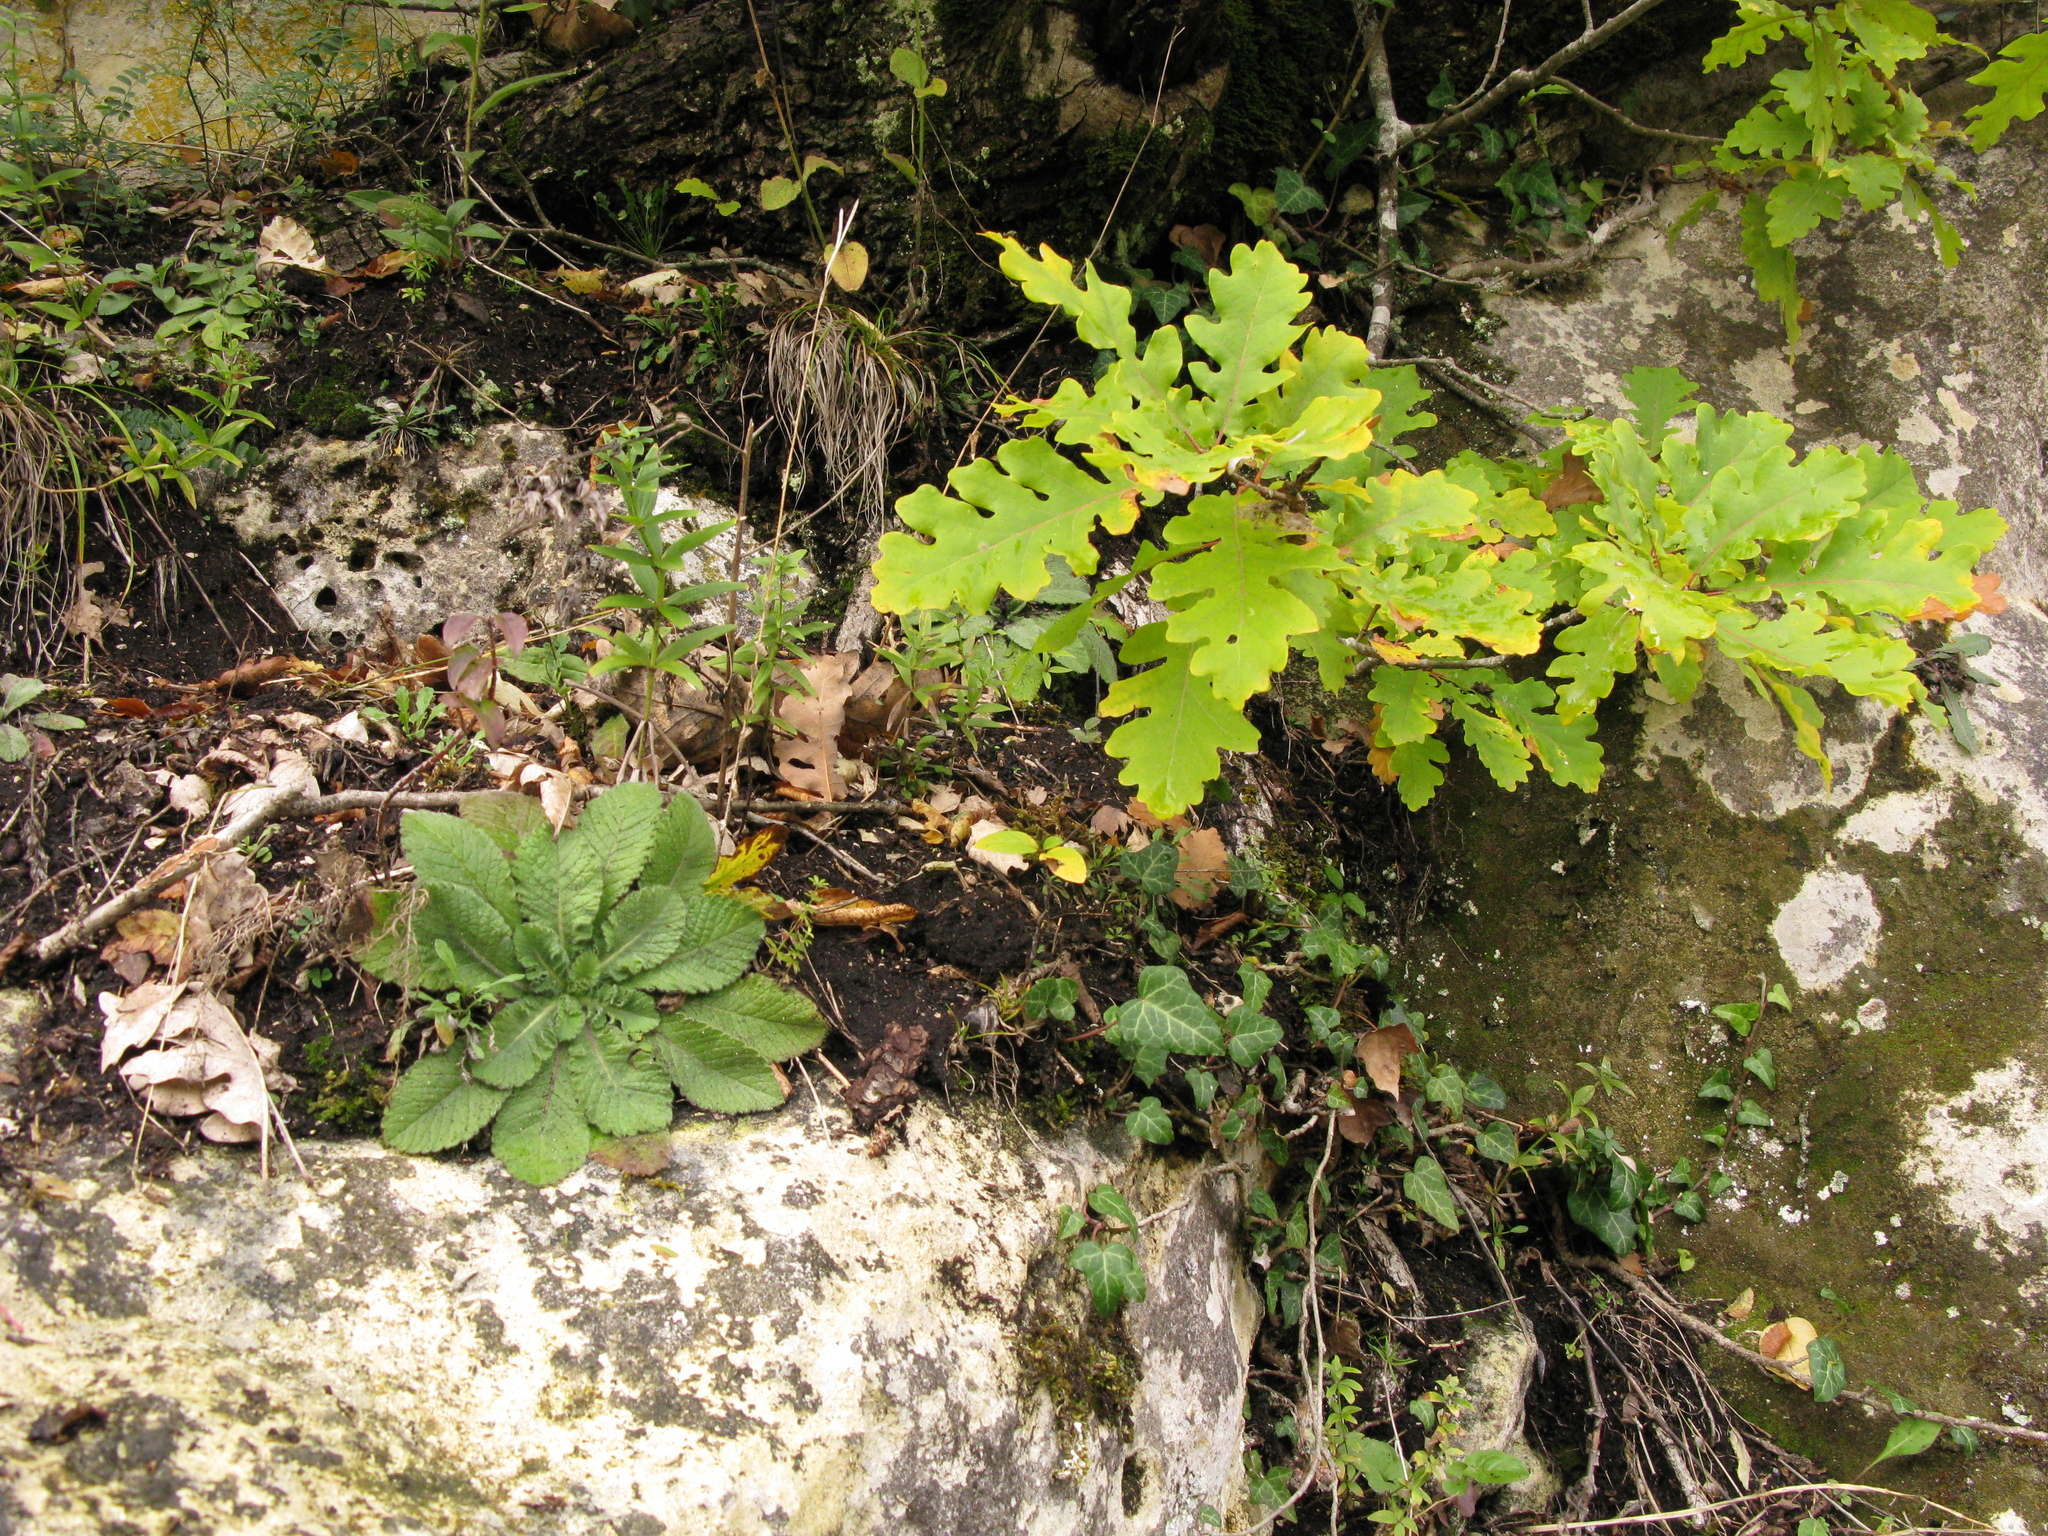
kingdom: Plantae
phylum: Tracheophyta
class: Magnoliopsida
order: Fagales
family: Fagaceae
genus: Quercus
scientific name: Quercus petraea
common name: Sessile oak
